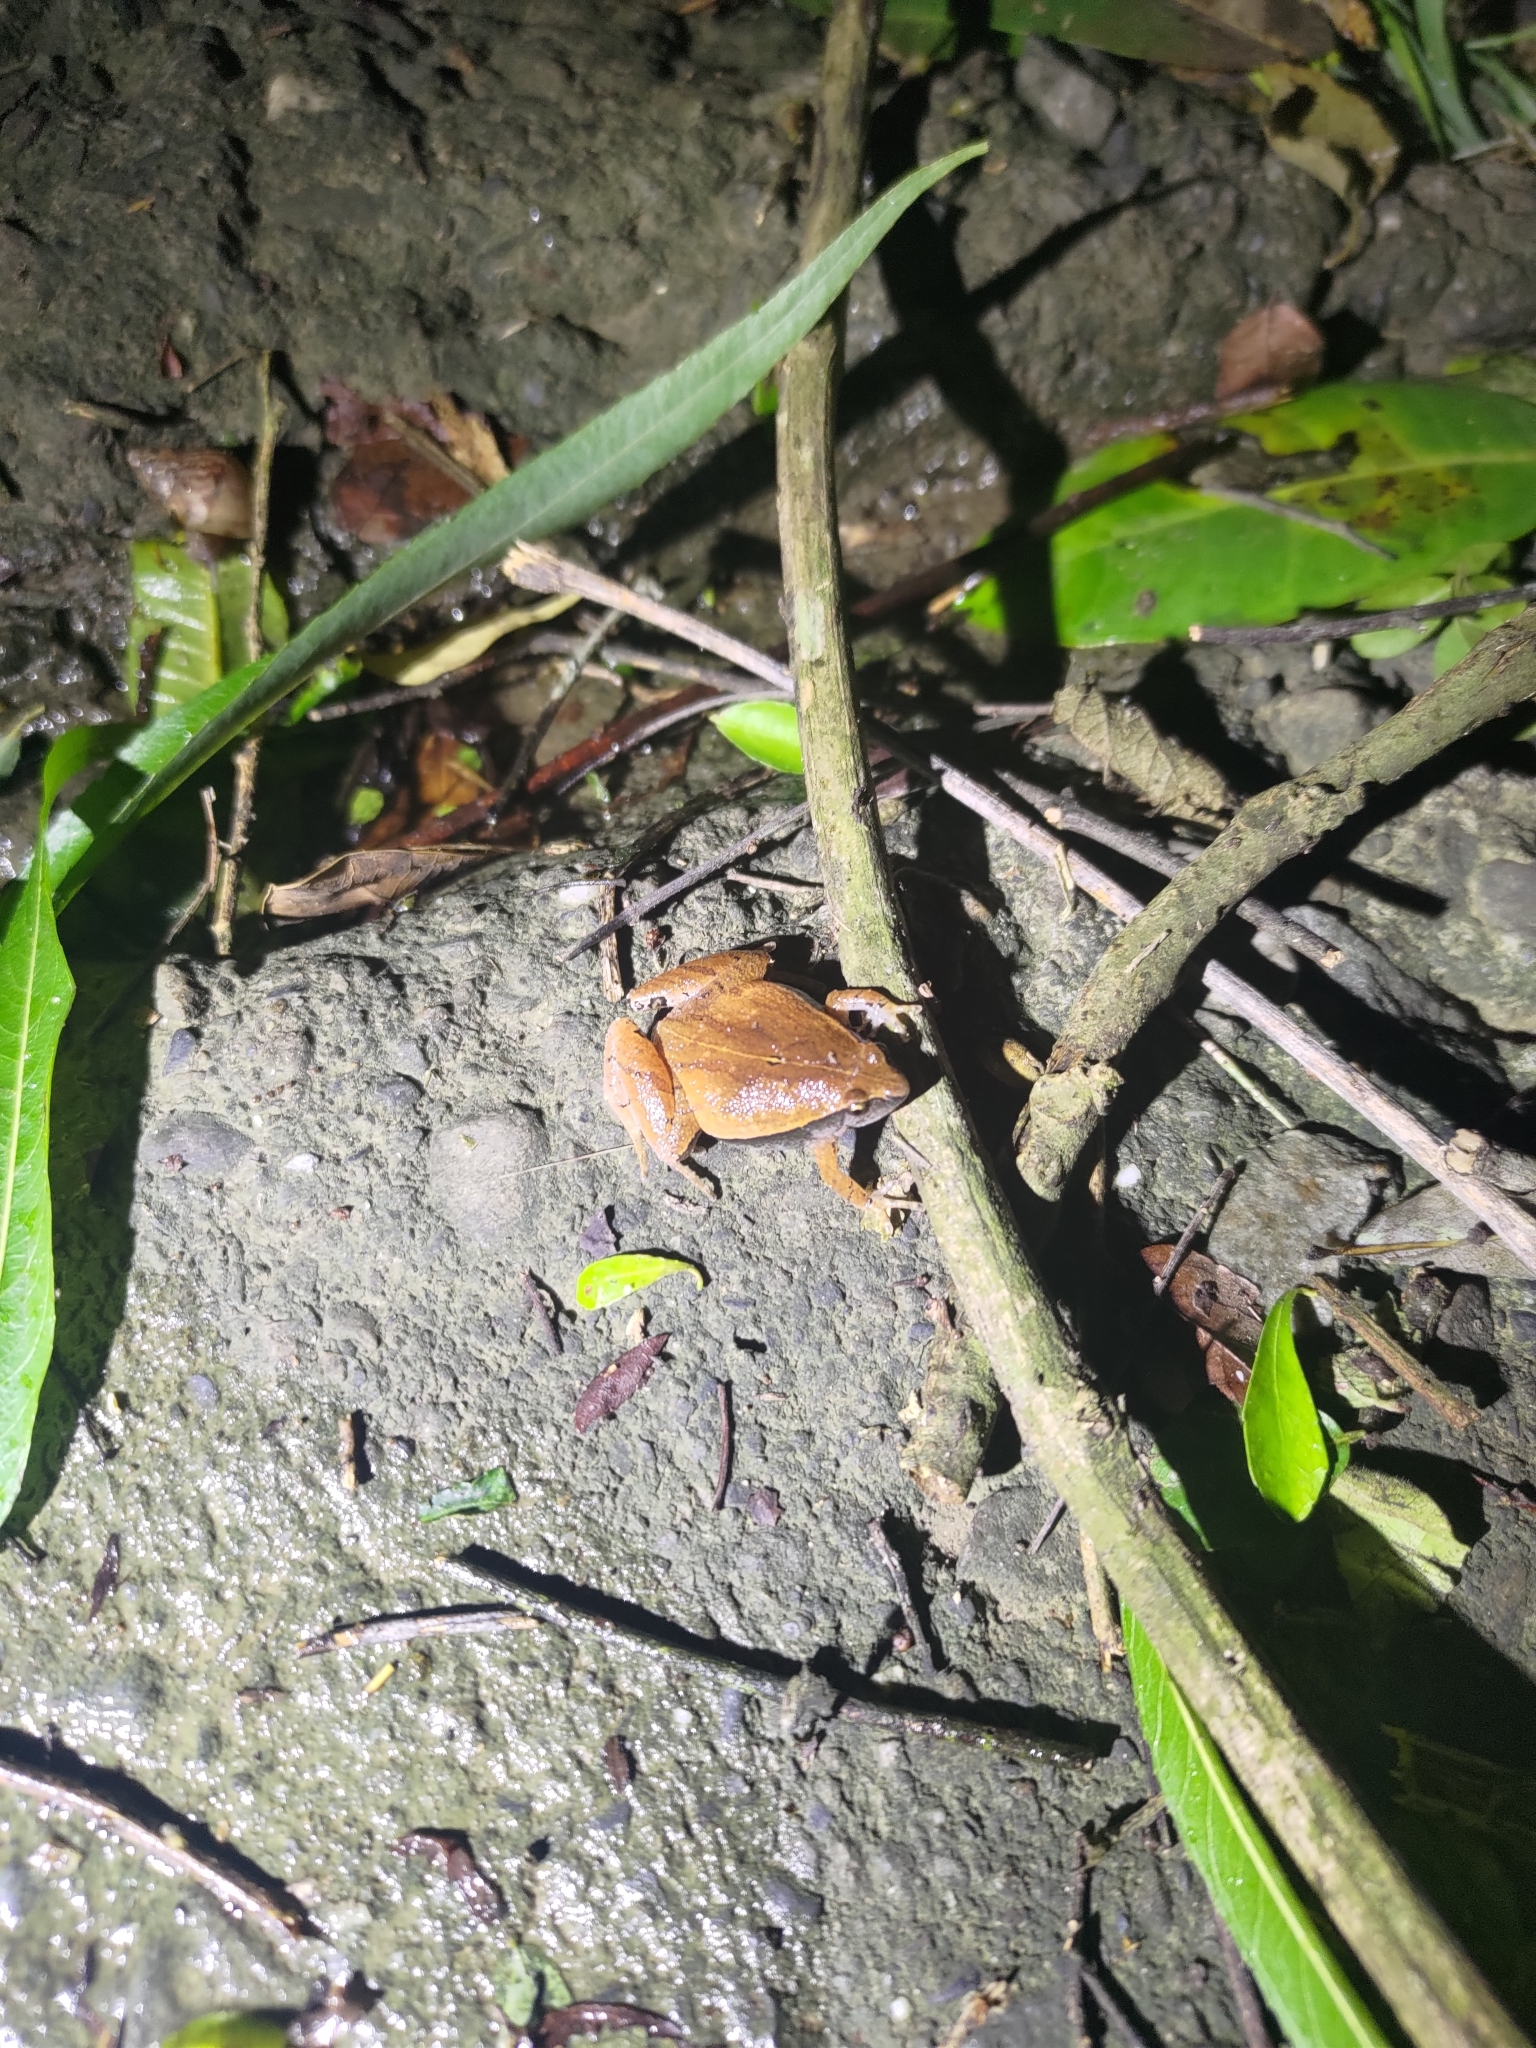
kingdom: Animalia
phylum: Chordata
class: Amphibia
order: Anura
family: Microhylidae
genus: Microhyla
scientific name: Microhyla heymonsi
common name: Taiwan rice frog,dark sided chorus frog
